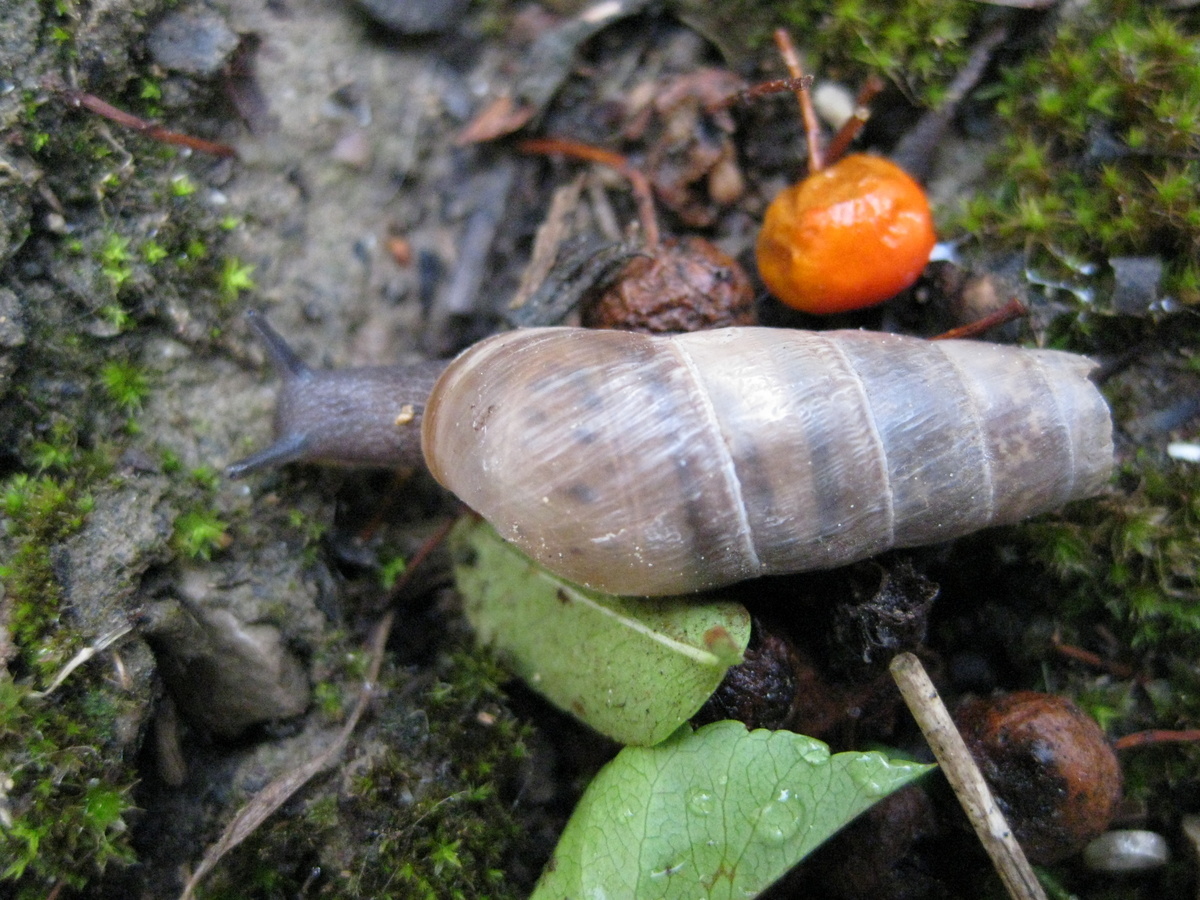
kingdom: Animalia
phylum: Mollusca
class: Gastropoda
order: Stylommatophora
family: Achatinidae
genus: Rumina
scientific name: Rumina decollata
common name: Decollate snail
